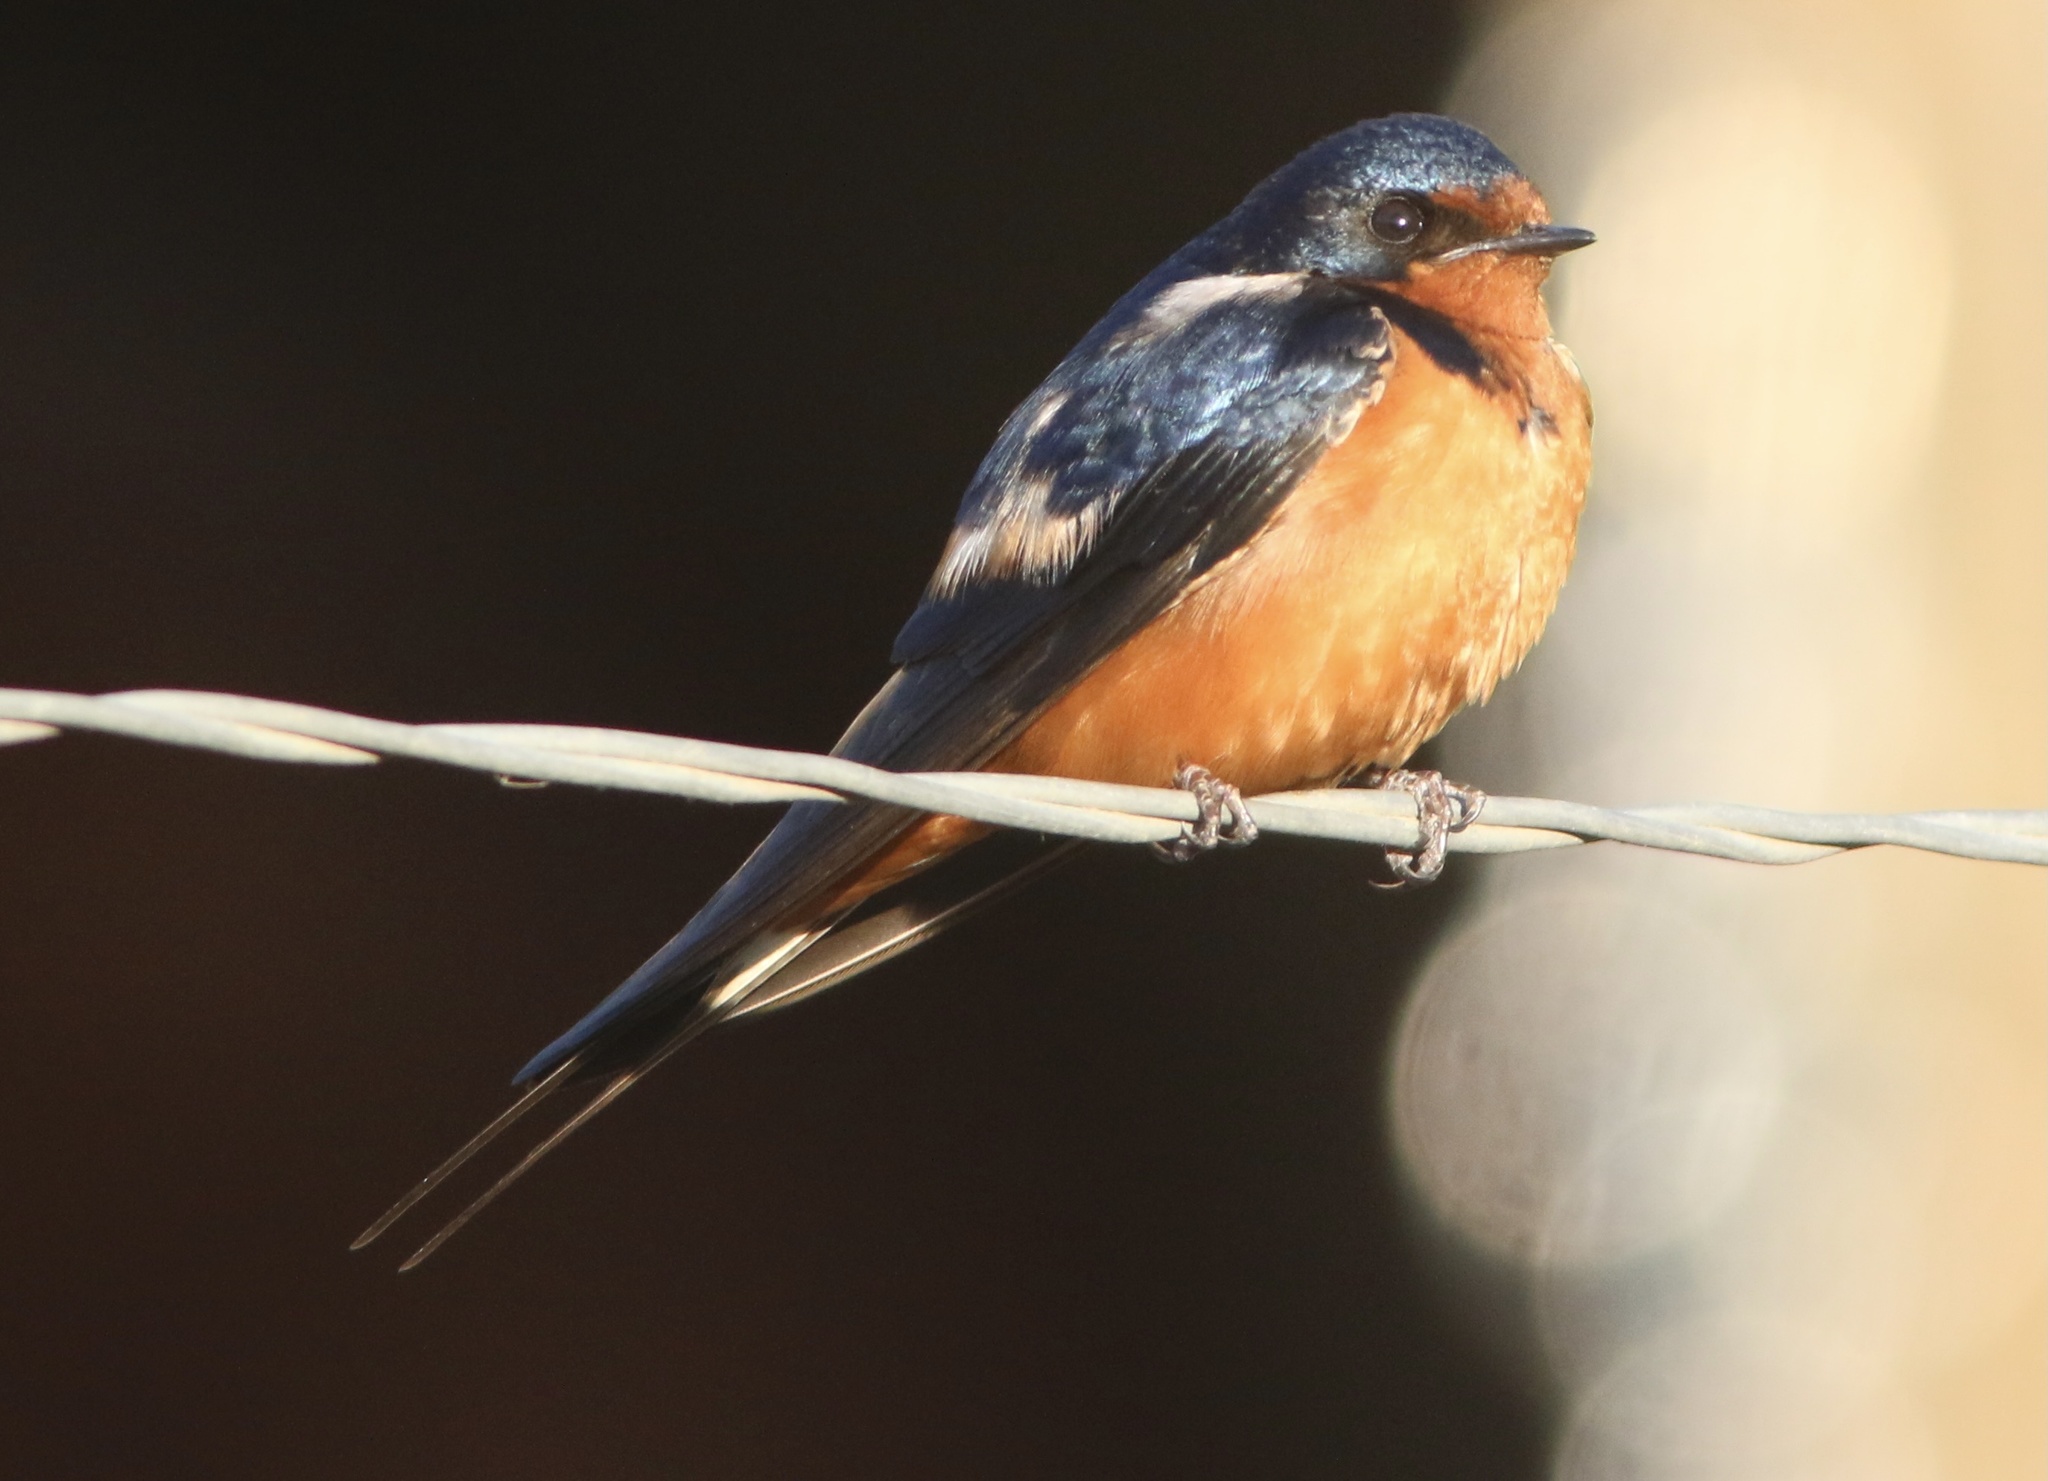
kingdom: Animalia
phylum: Chordata
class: Aves
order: Passeriformes
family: Hirundinidae
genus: Hirundo
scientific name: Hirundo rustica
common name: Barn swallow
